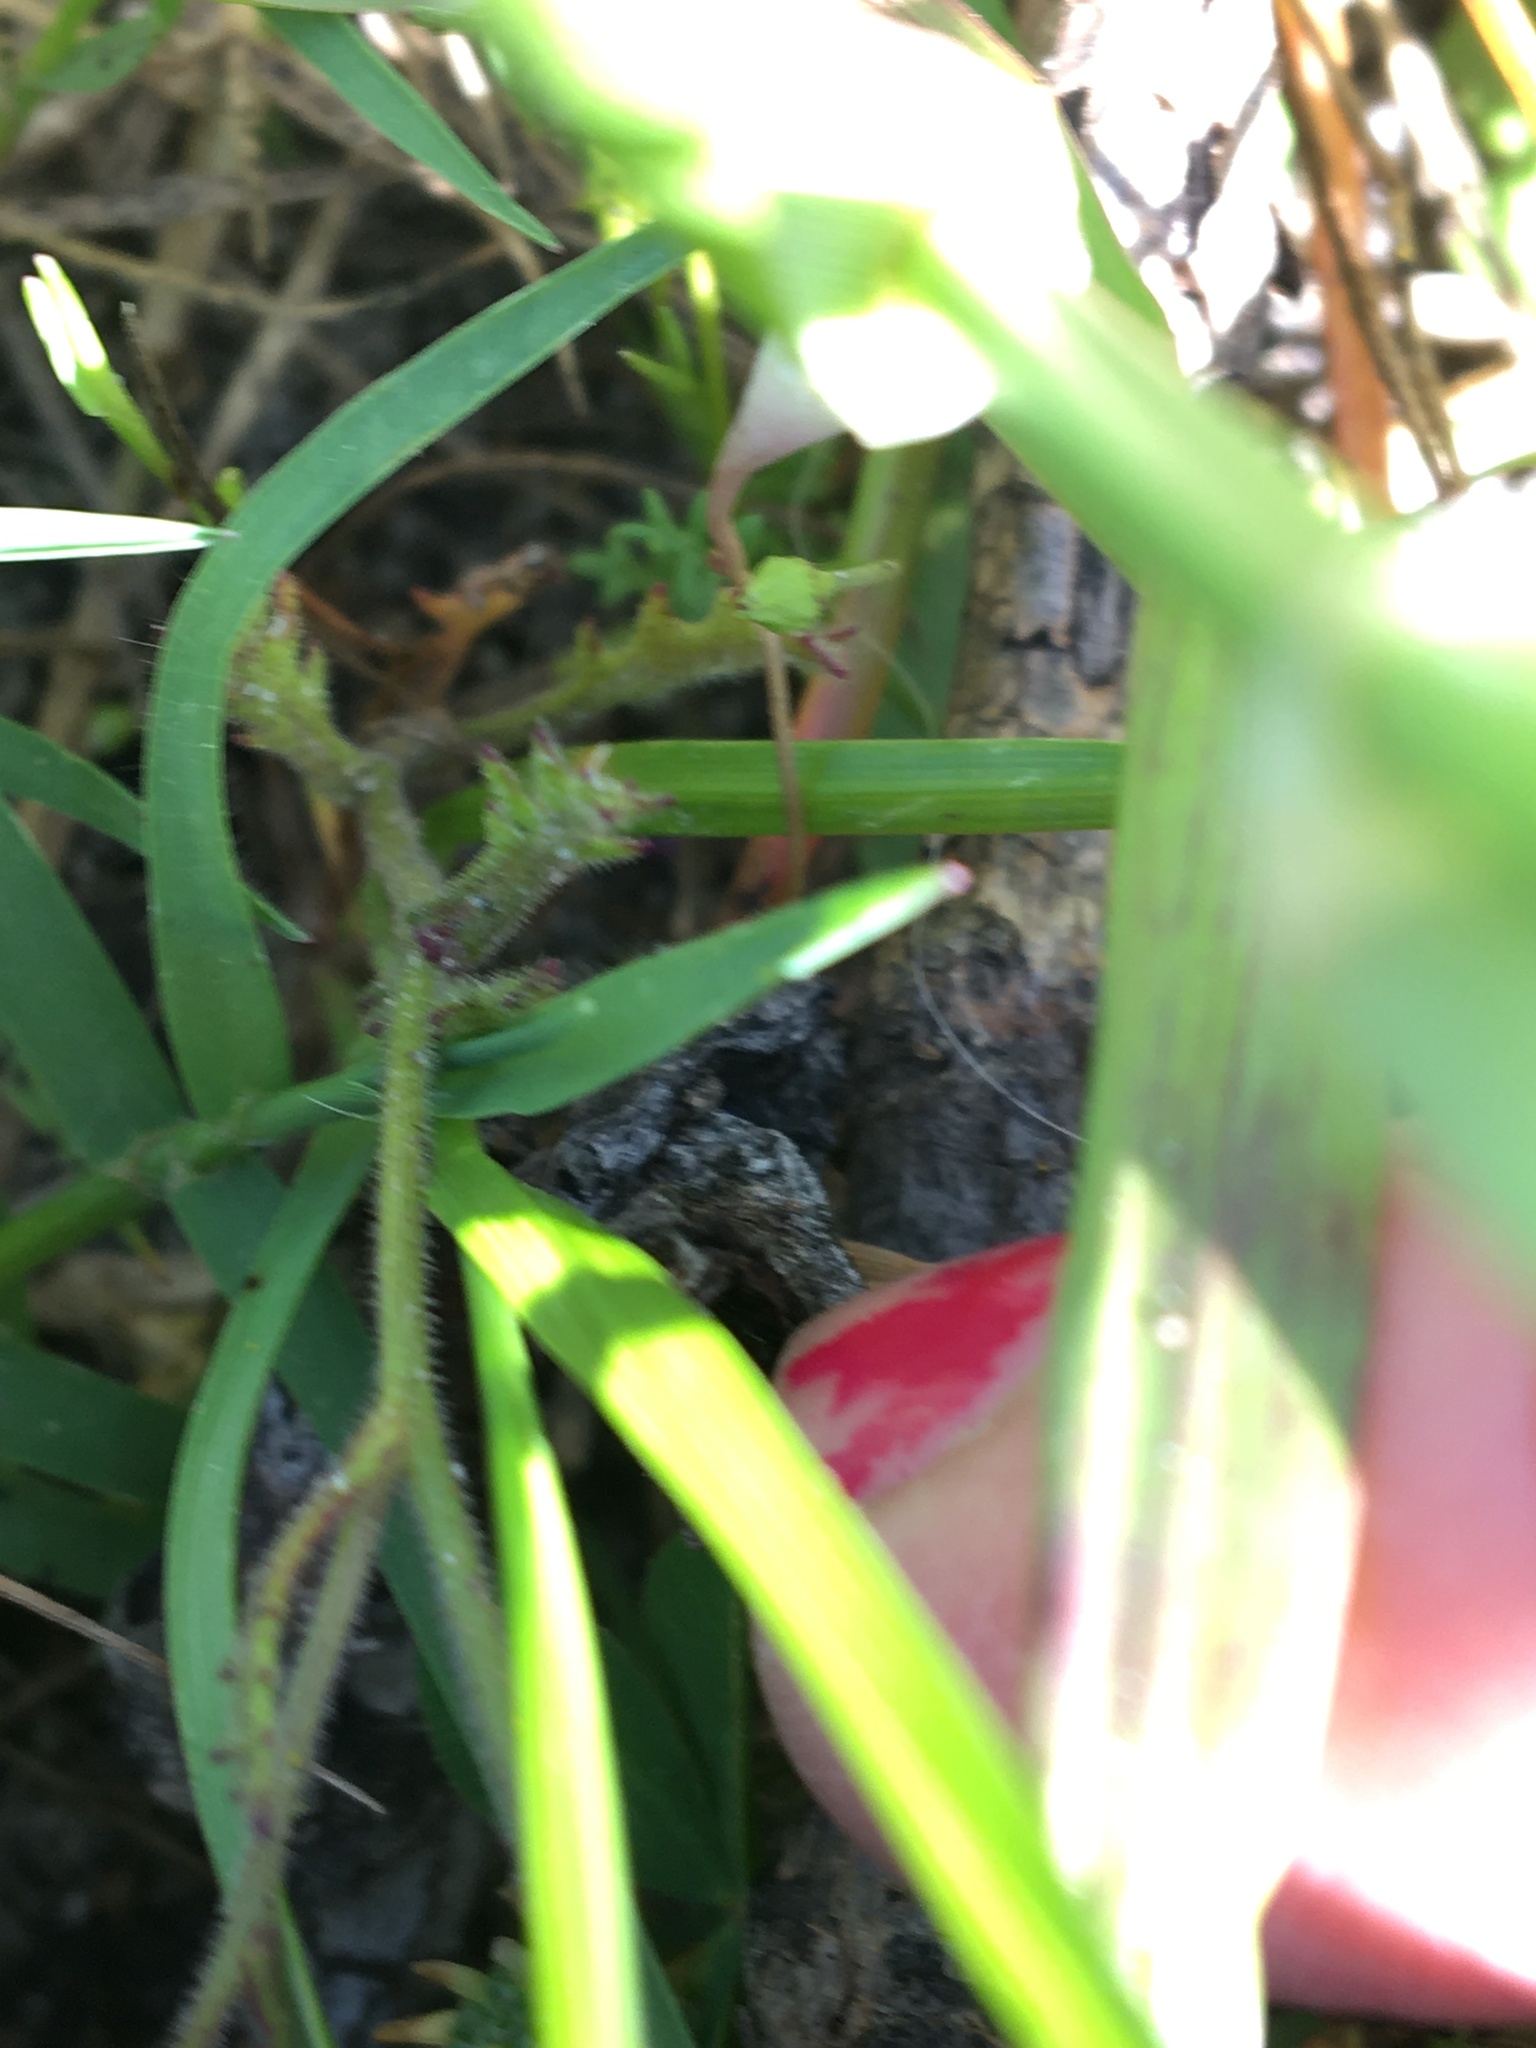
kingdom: Plantae
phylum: Tracheophyta
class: Magnoliopsida
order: Asterales
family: Asteraceae
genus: Senecio
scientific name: Senecio arenarius
